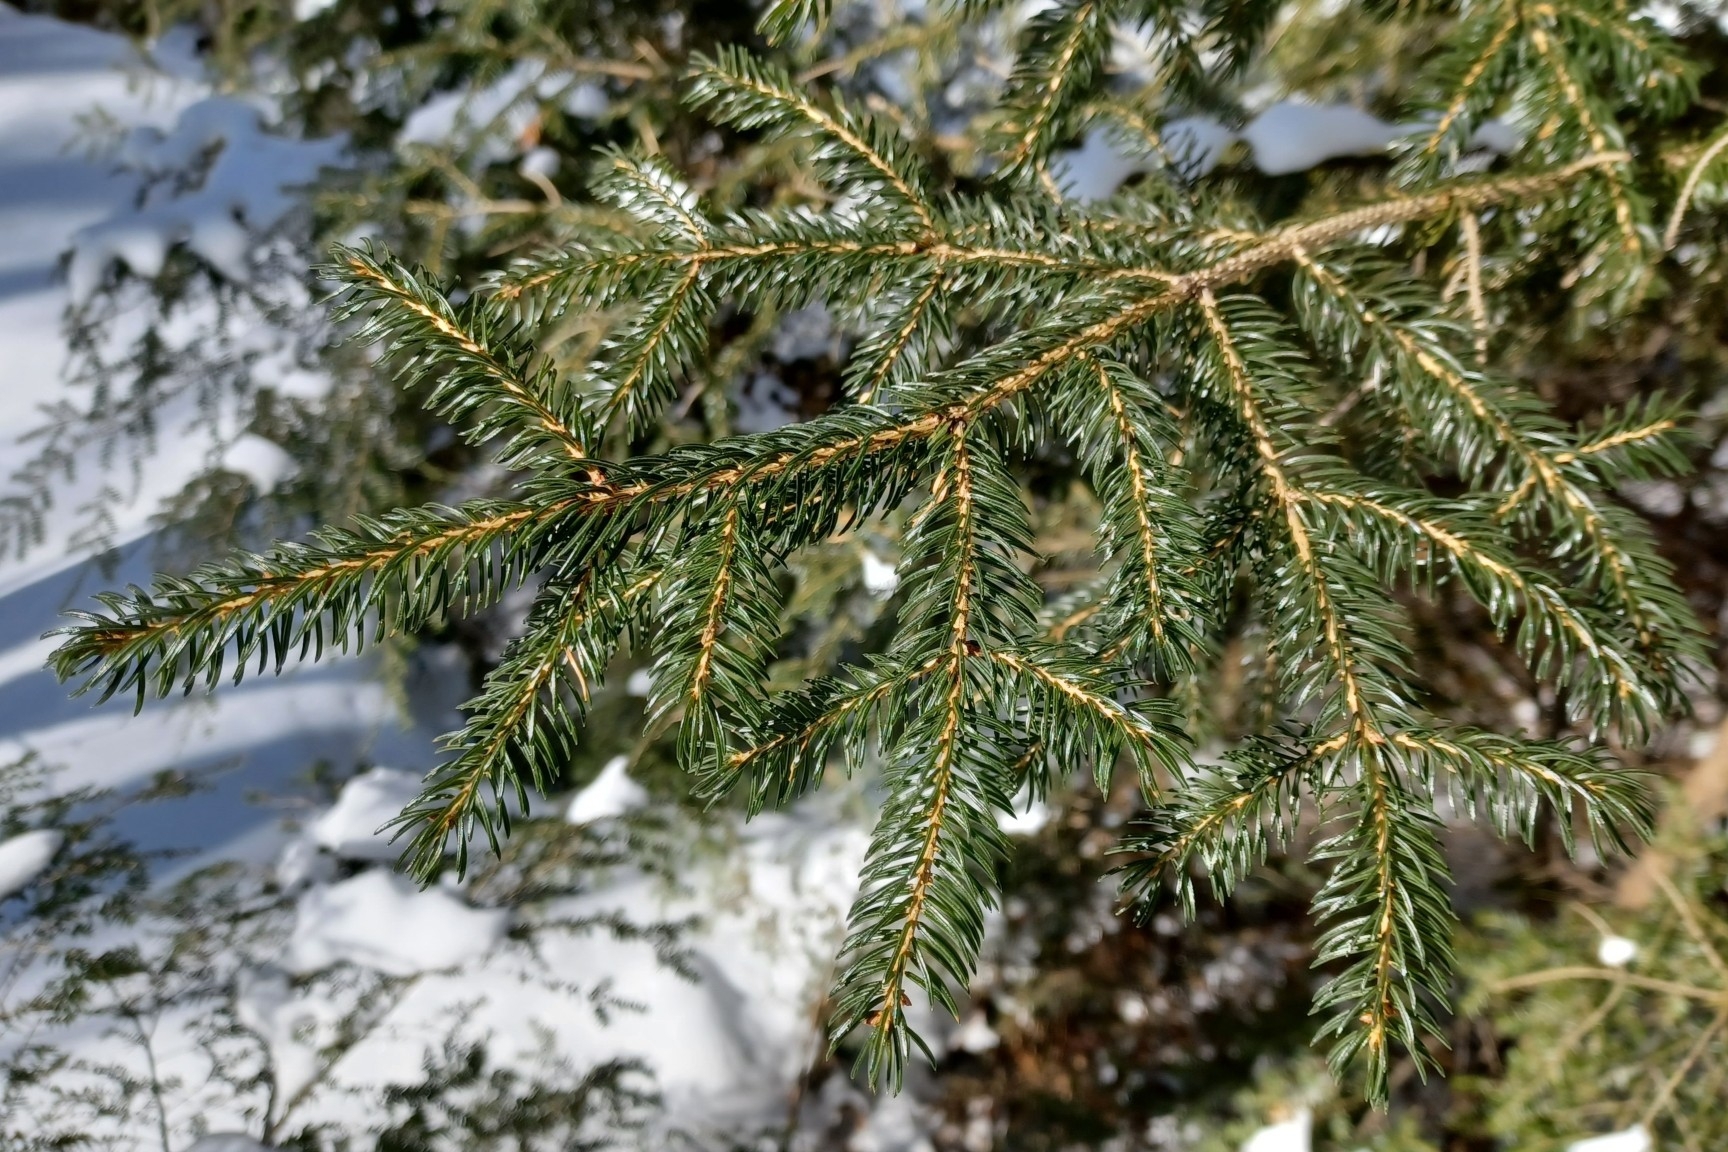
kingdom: Plantae
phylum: Tracheophyta
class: Pinopsida
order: Pinales
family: Pinaceae
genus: Picea
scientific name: Picea rubens
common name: Red spruce
